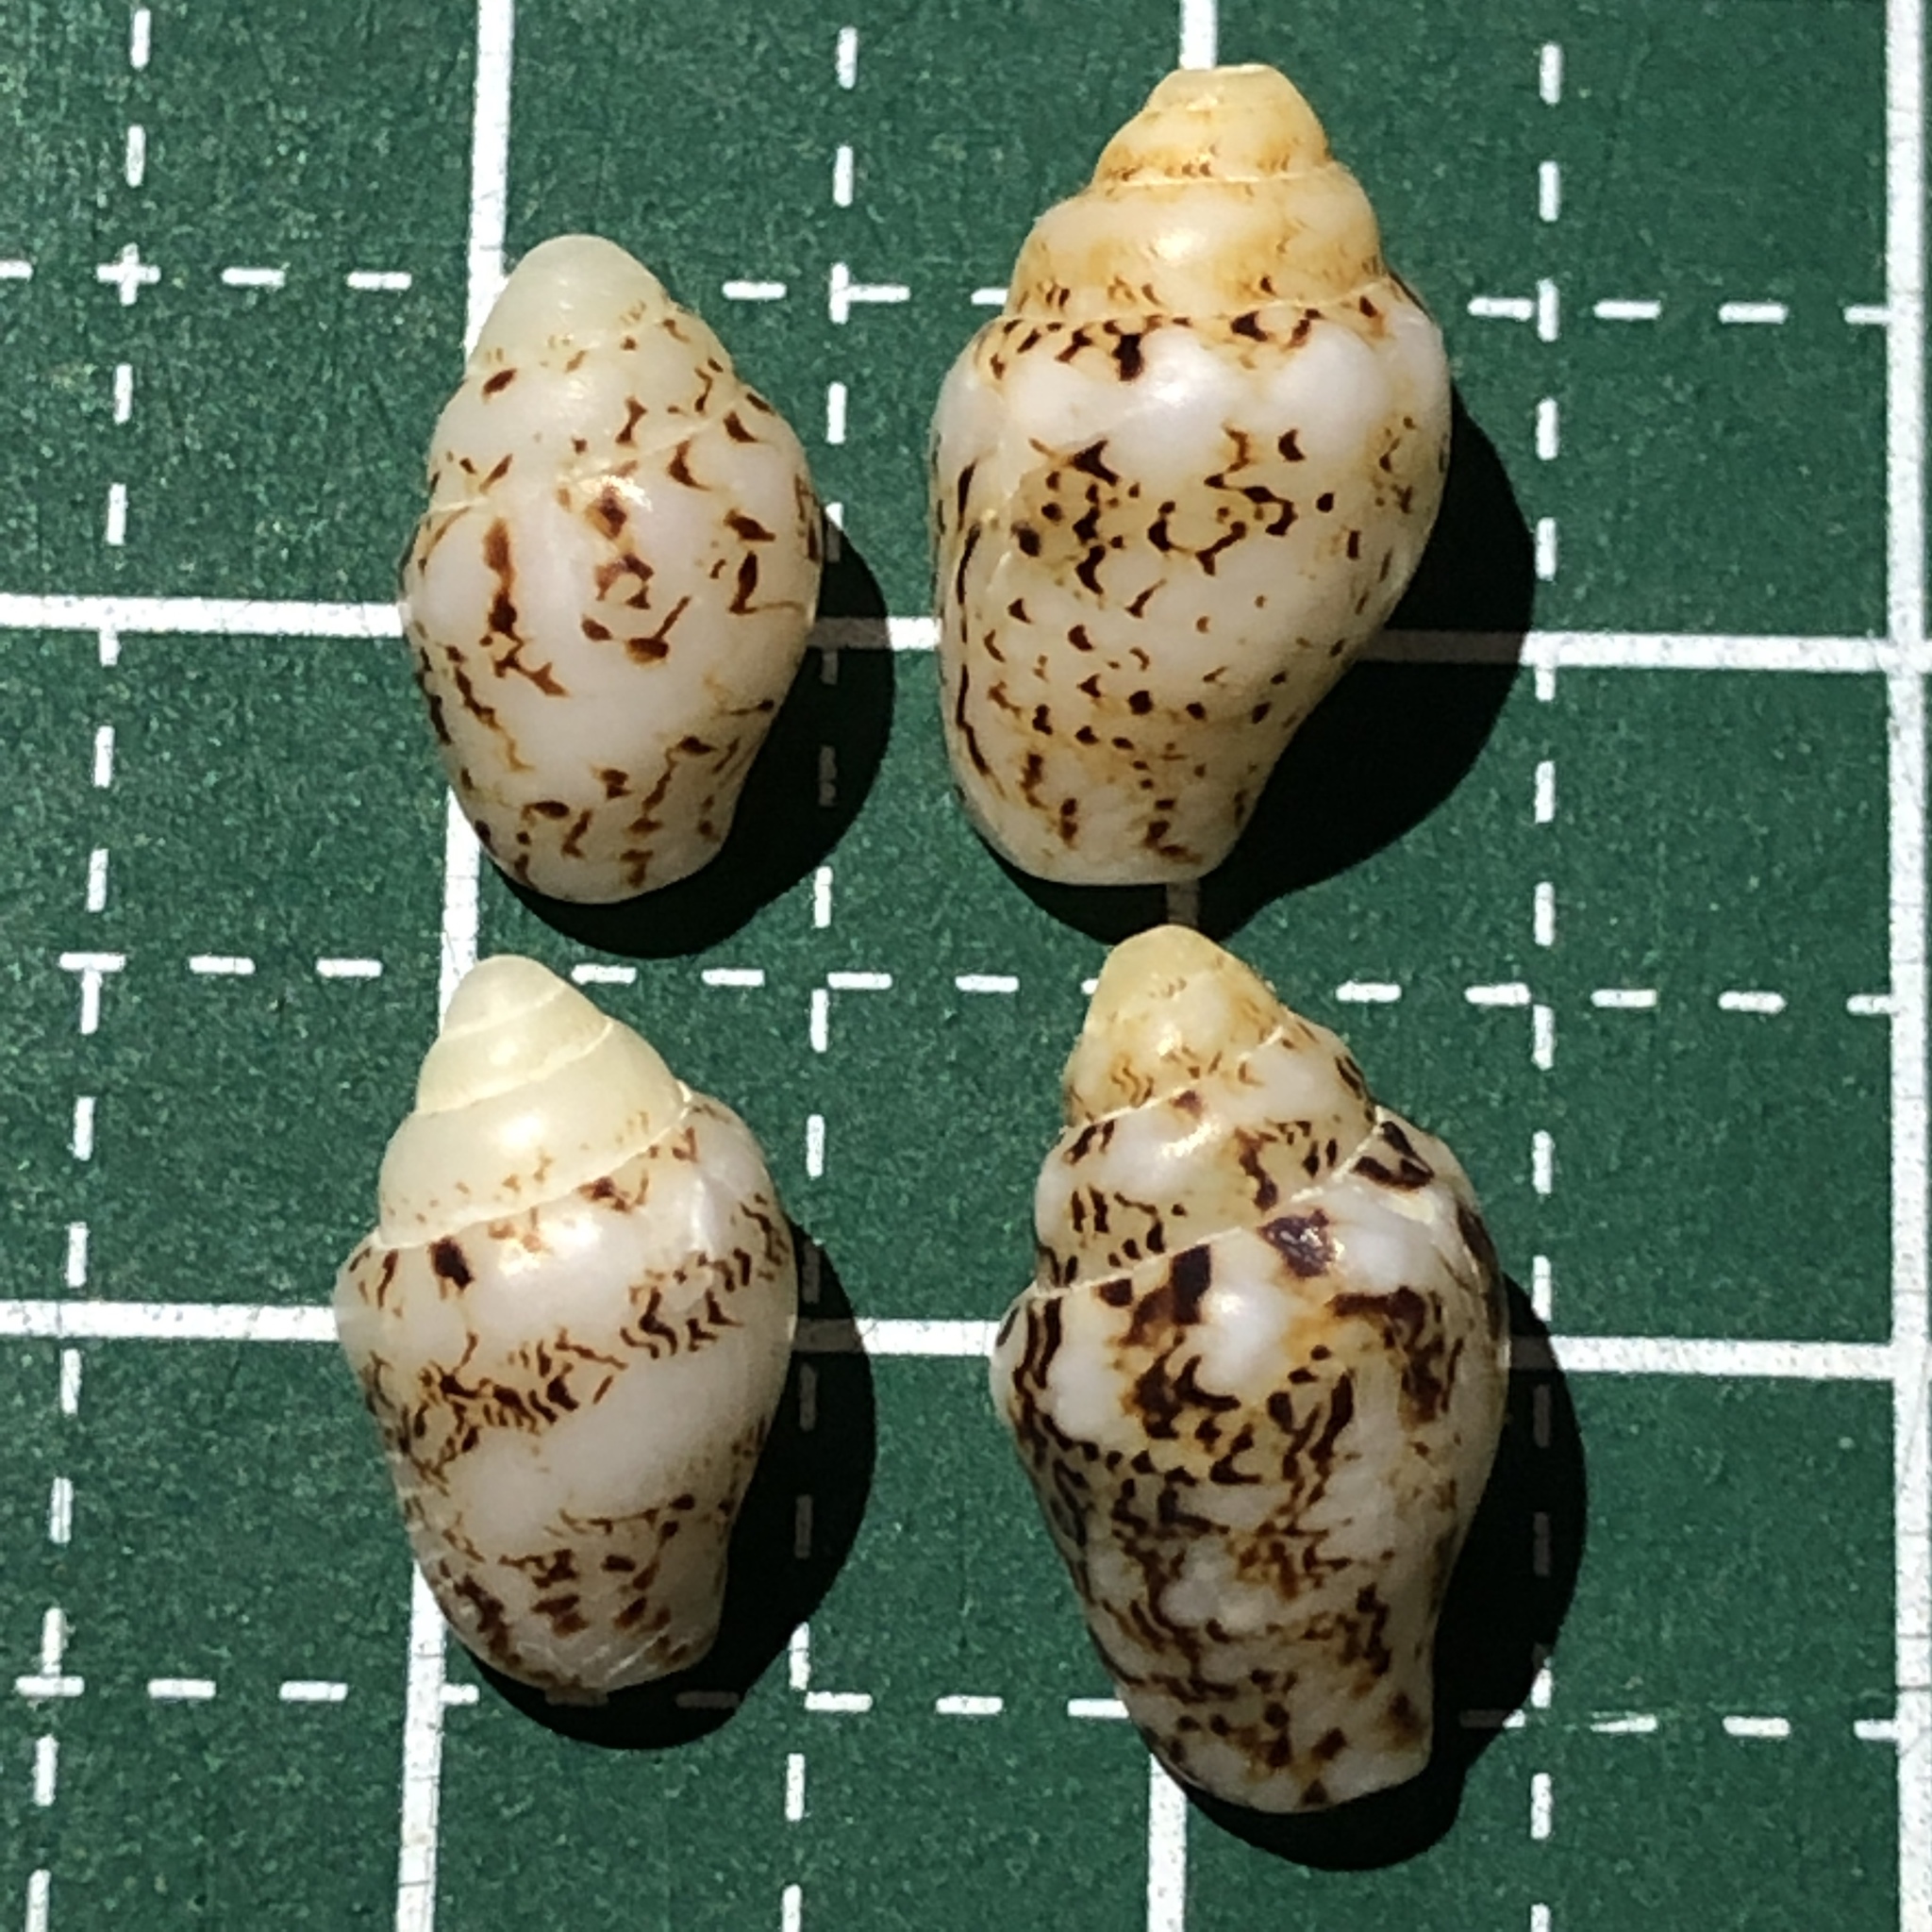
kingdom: Animalia
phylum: Mollusca
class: Gastropoda
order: Neogastropoda
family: Columbellidae
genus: Euplica
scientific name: Euplica scripta
